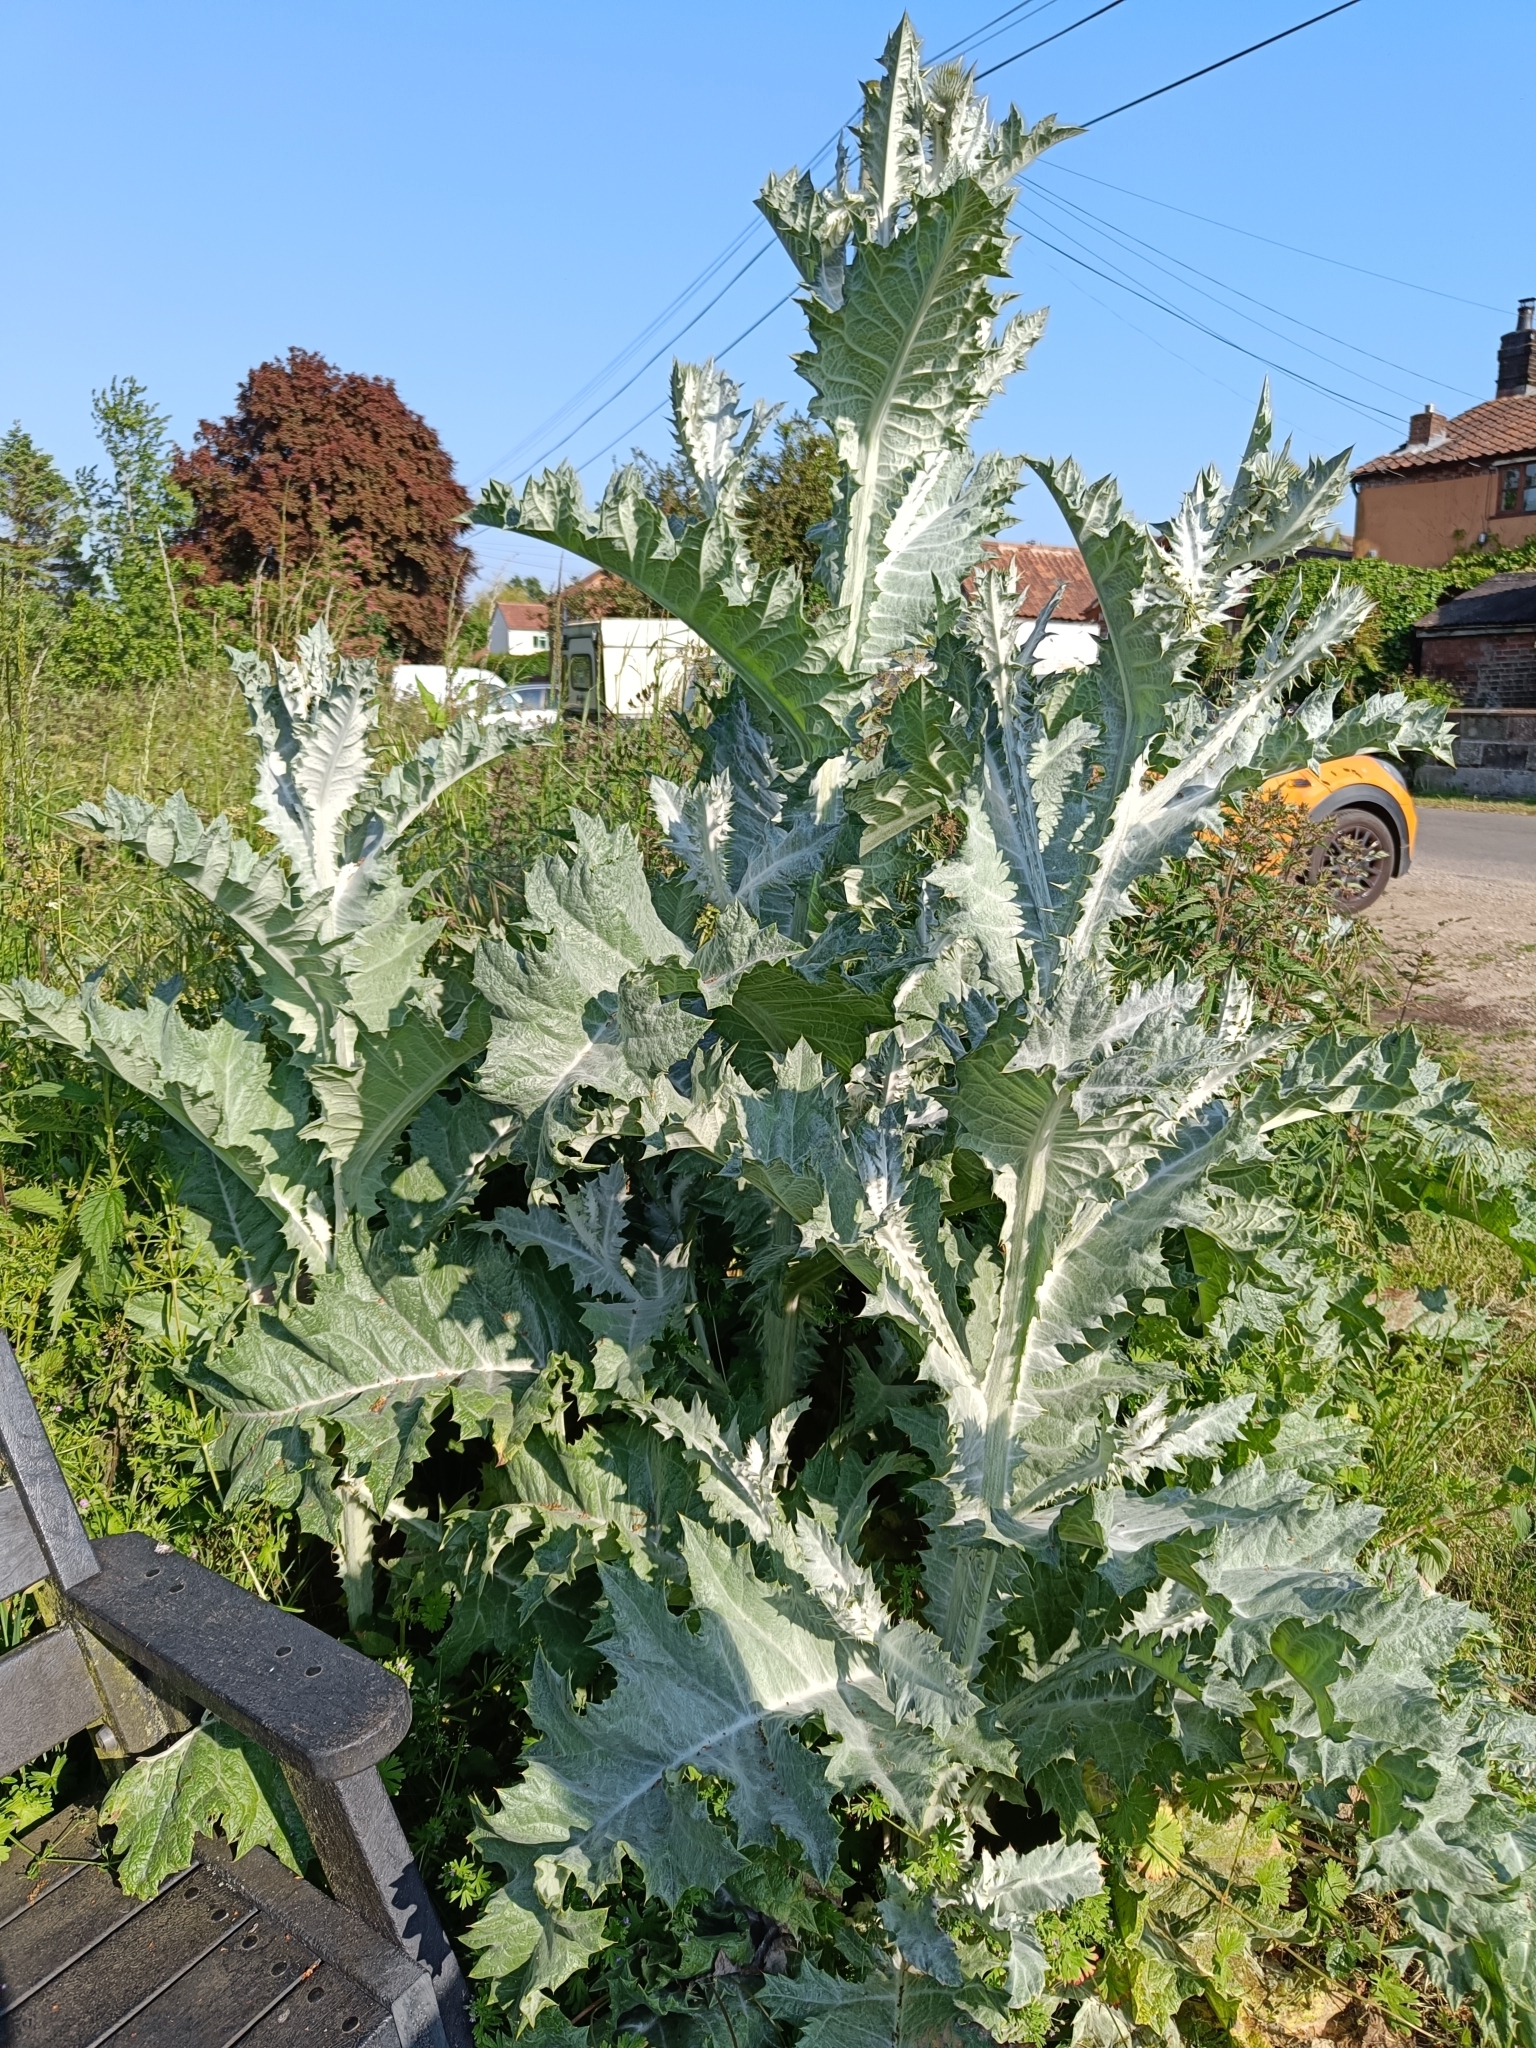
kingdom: Plantae
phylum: Tracheophyta
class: Magnoliopsida
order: Asterales
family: Asteraceae
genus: Onopordum
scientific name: Onopordum acanthium
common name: Scotch thistle
